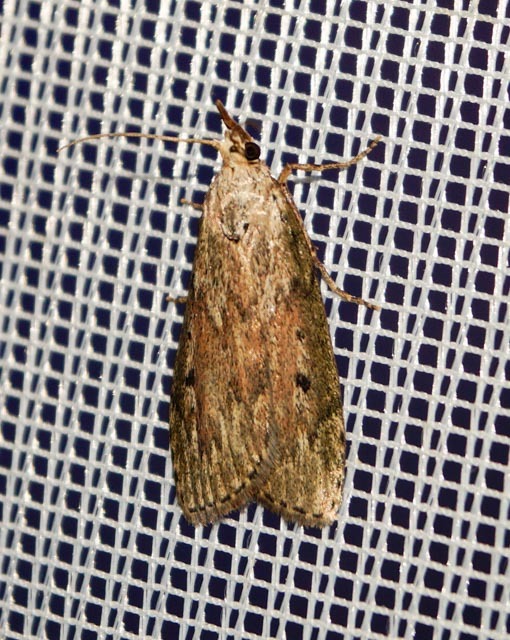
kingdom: Animalia
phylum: Arthropoda
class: Insecta
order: Lepidoptera
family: Pyralidae
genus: Aphomia
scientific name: Aphomia sociella
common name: Bee moth
